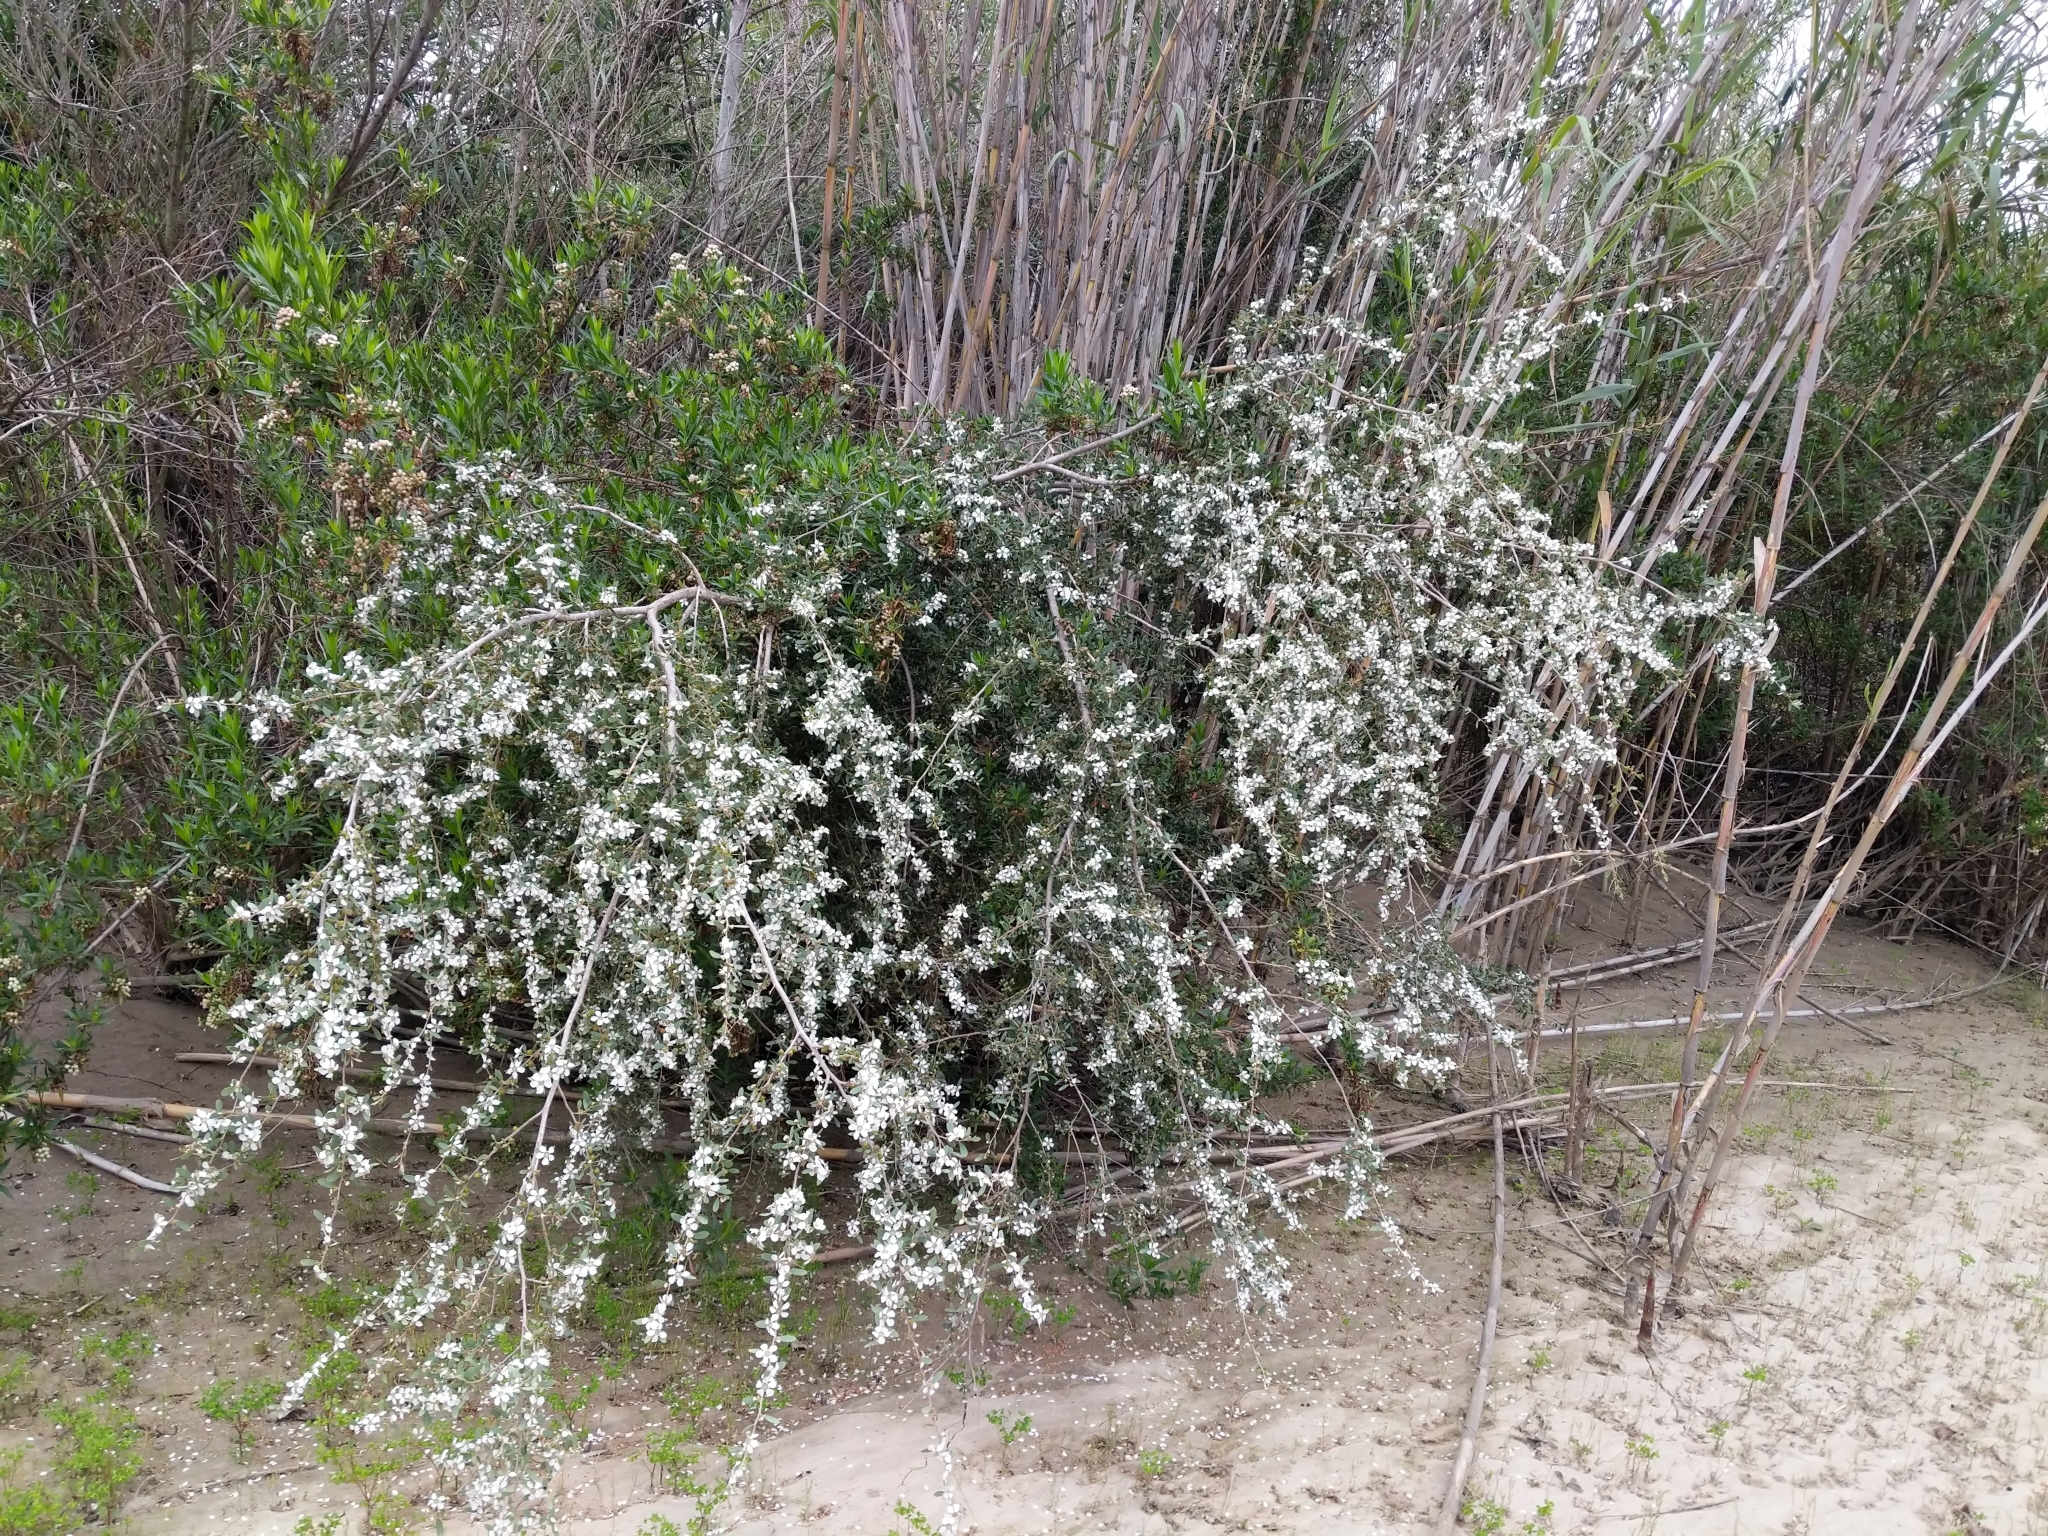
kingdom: Plantae
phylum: Tracheophyta
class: Magnoliopsida
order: Myrtales
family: Myrtaceae
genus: Leptospermum
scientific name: Leptospermum laevigatum
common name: Australian teatree
